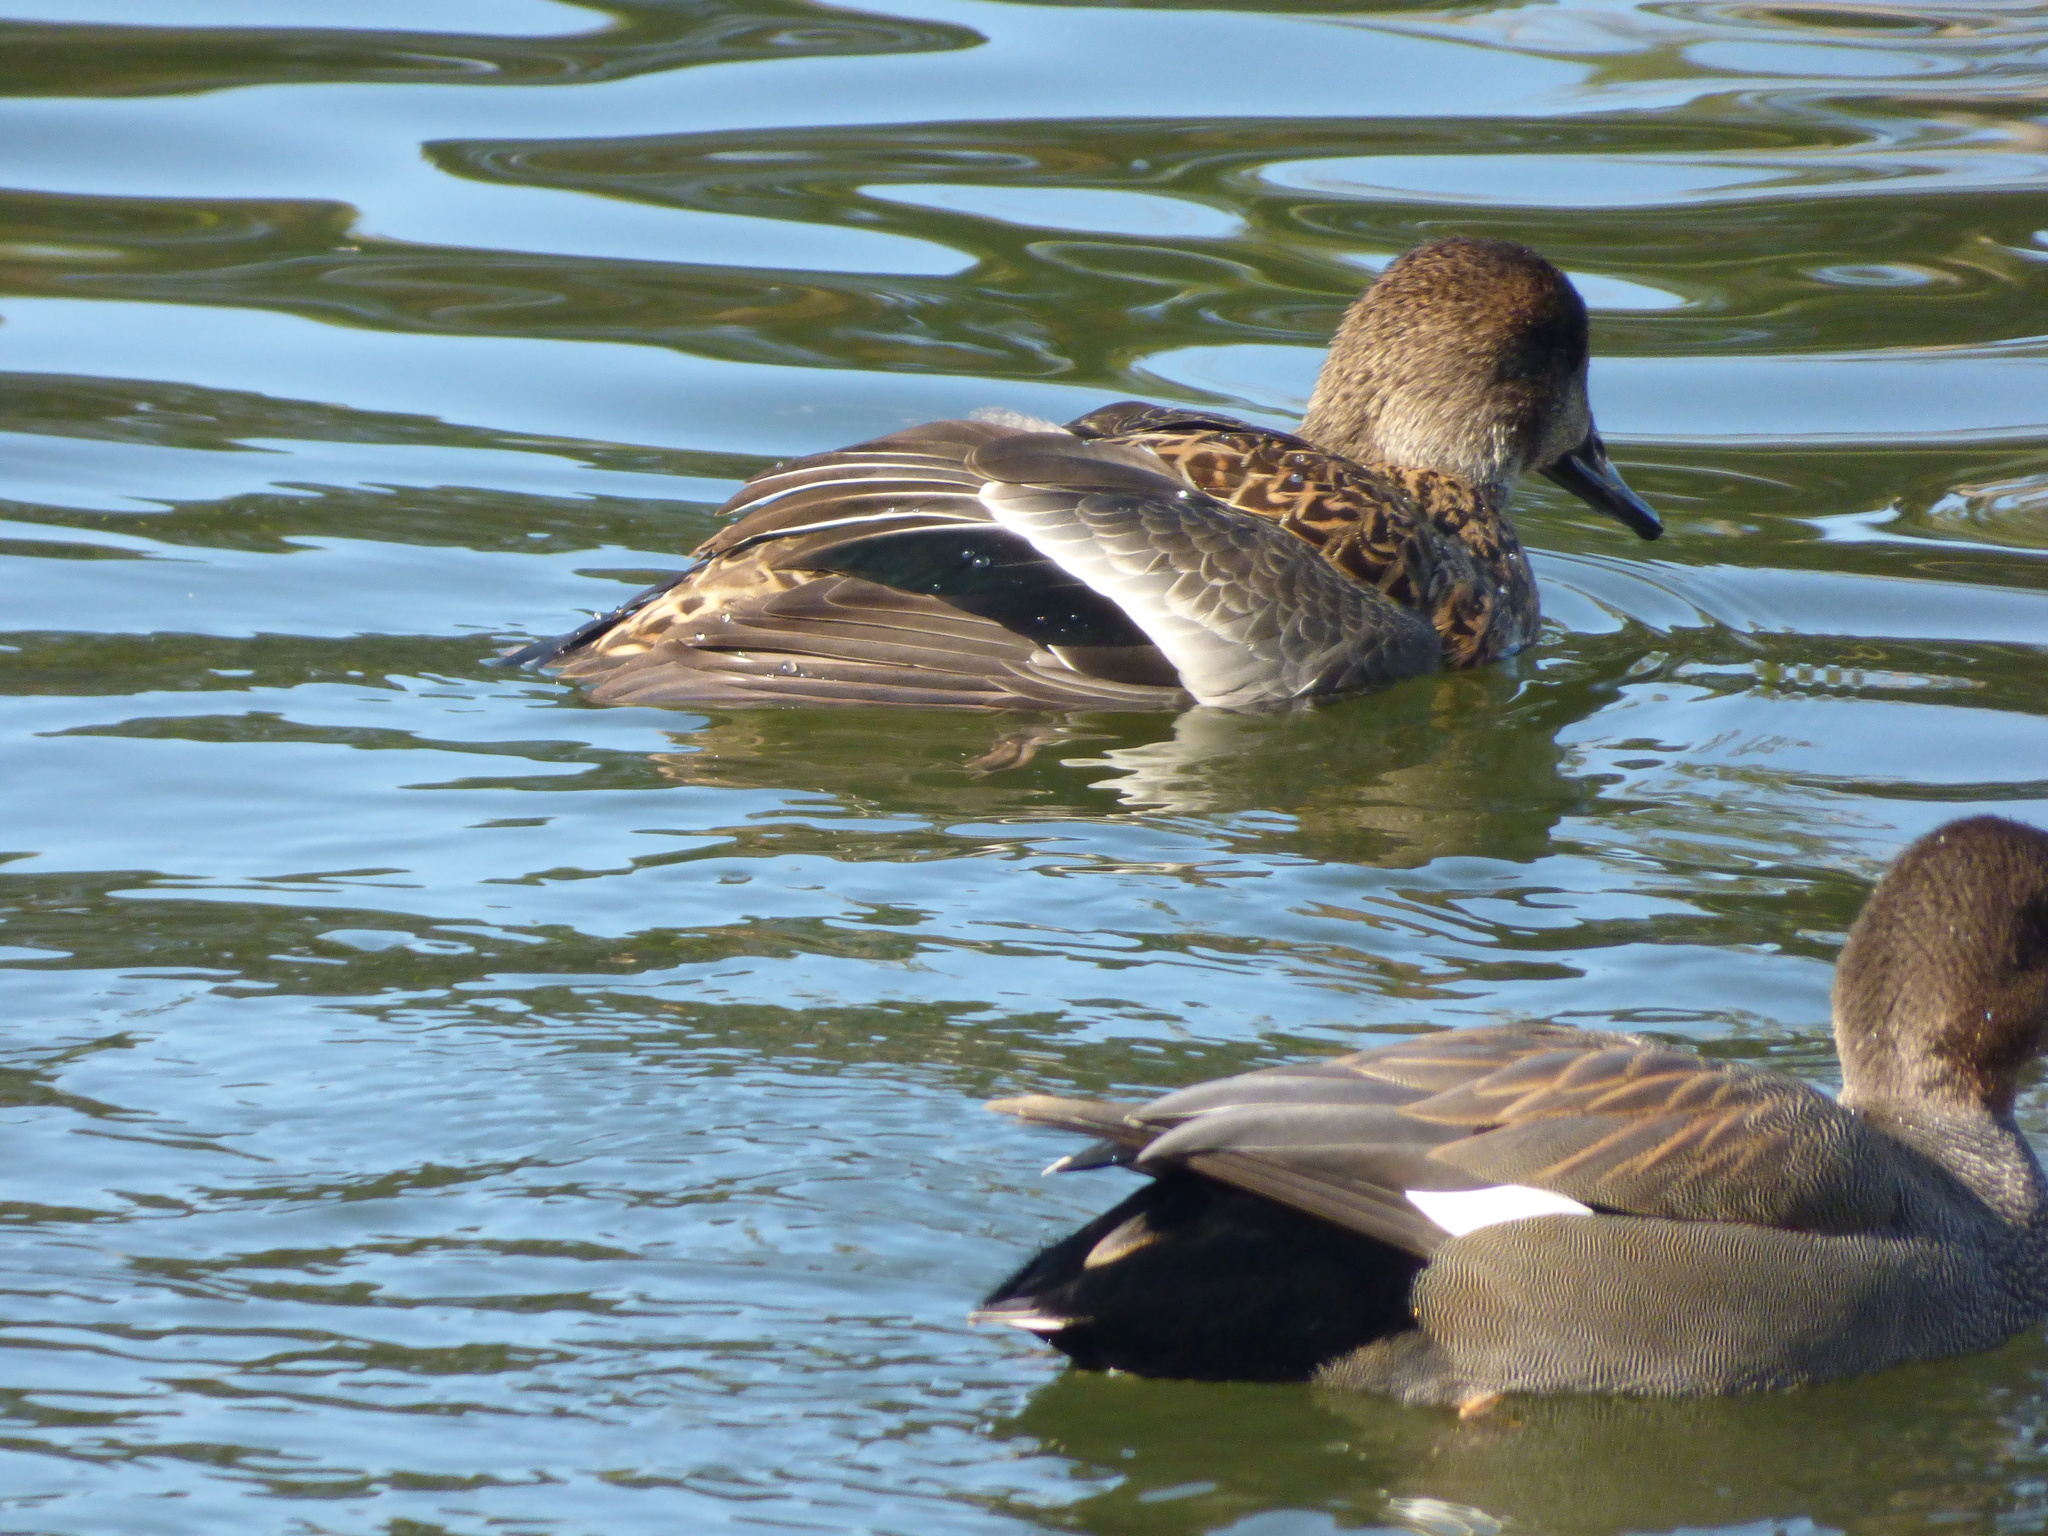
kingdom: Animalia
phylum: Chordata
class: Aves
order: Anseriformes
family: Anatidae
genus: Mareca
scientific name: Mareca strepera
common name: Gadwall
